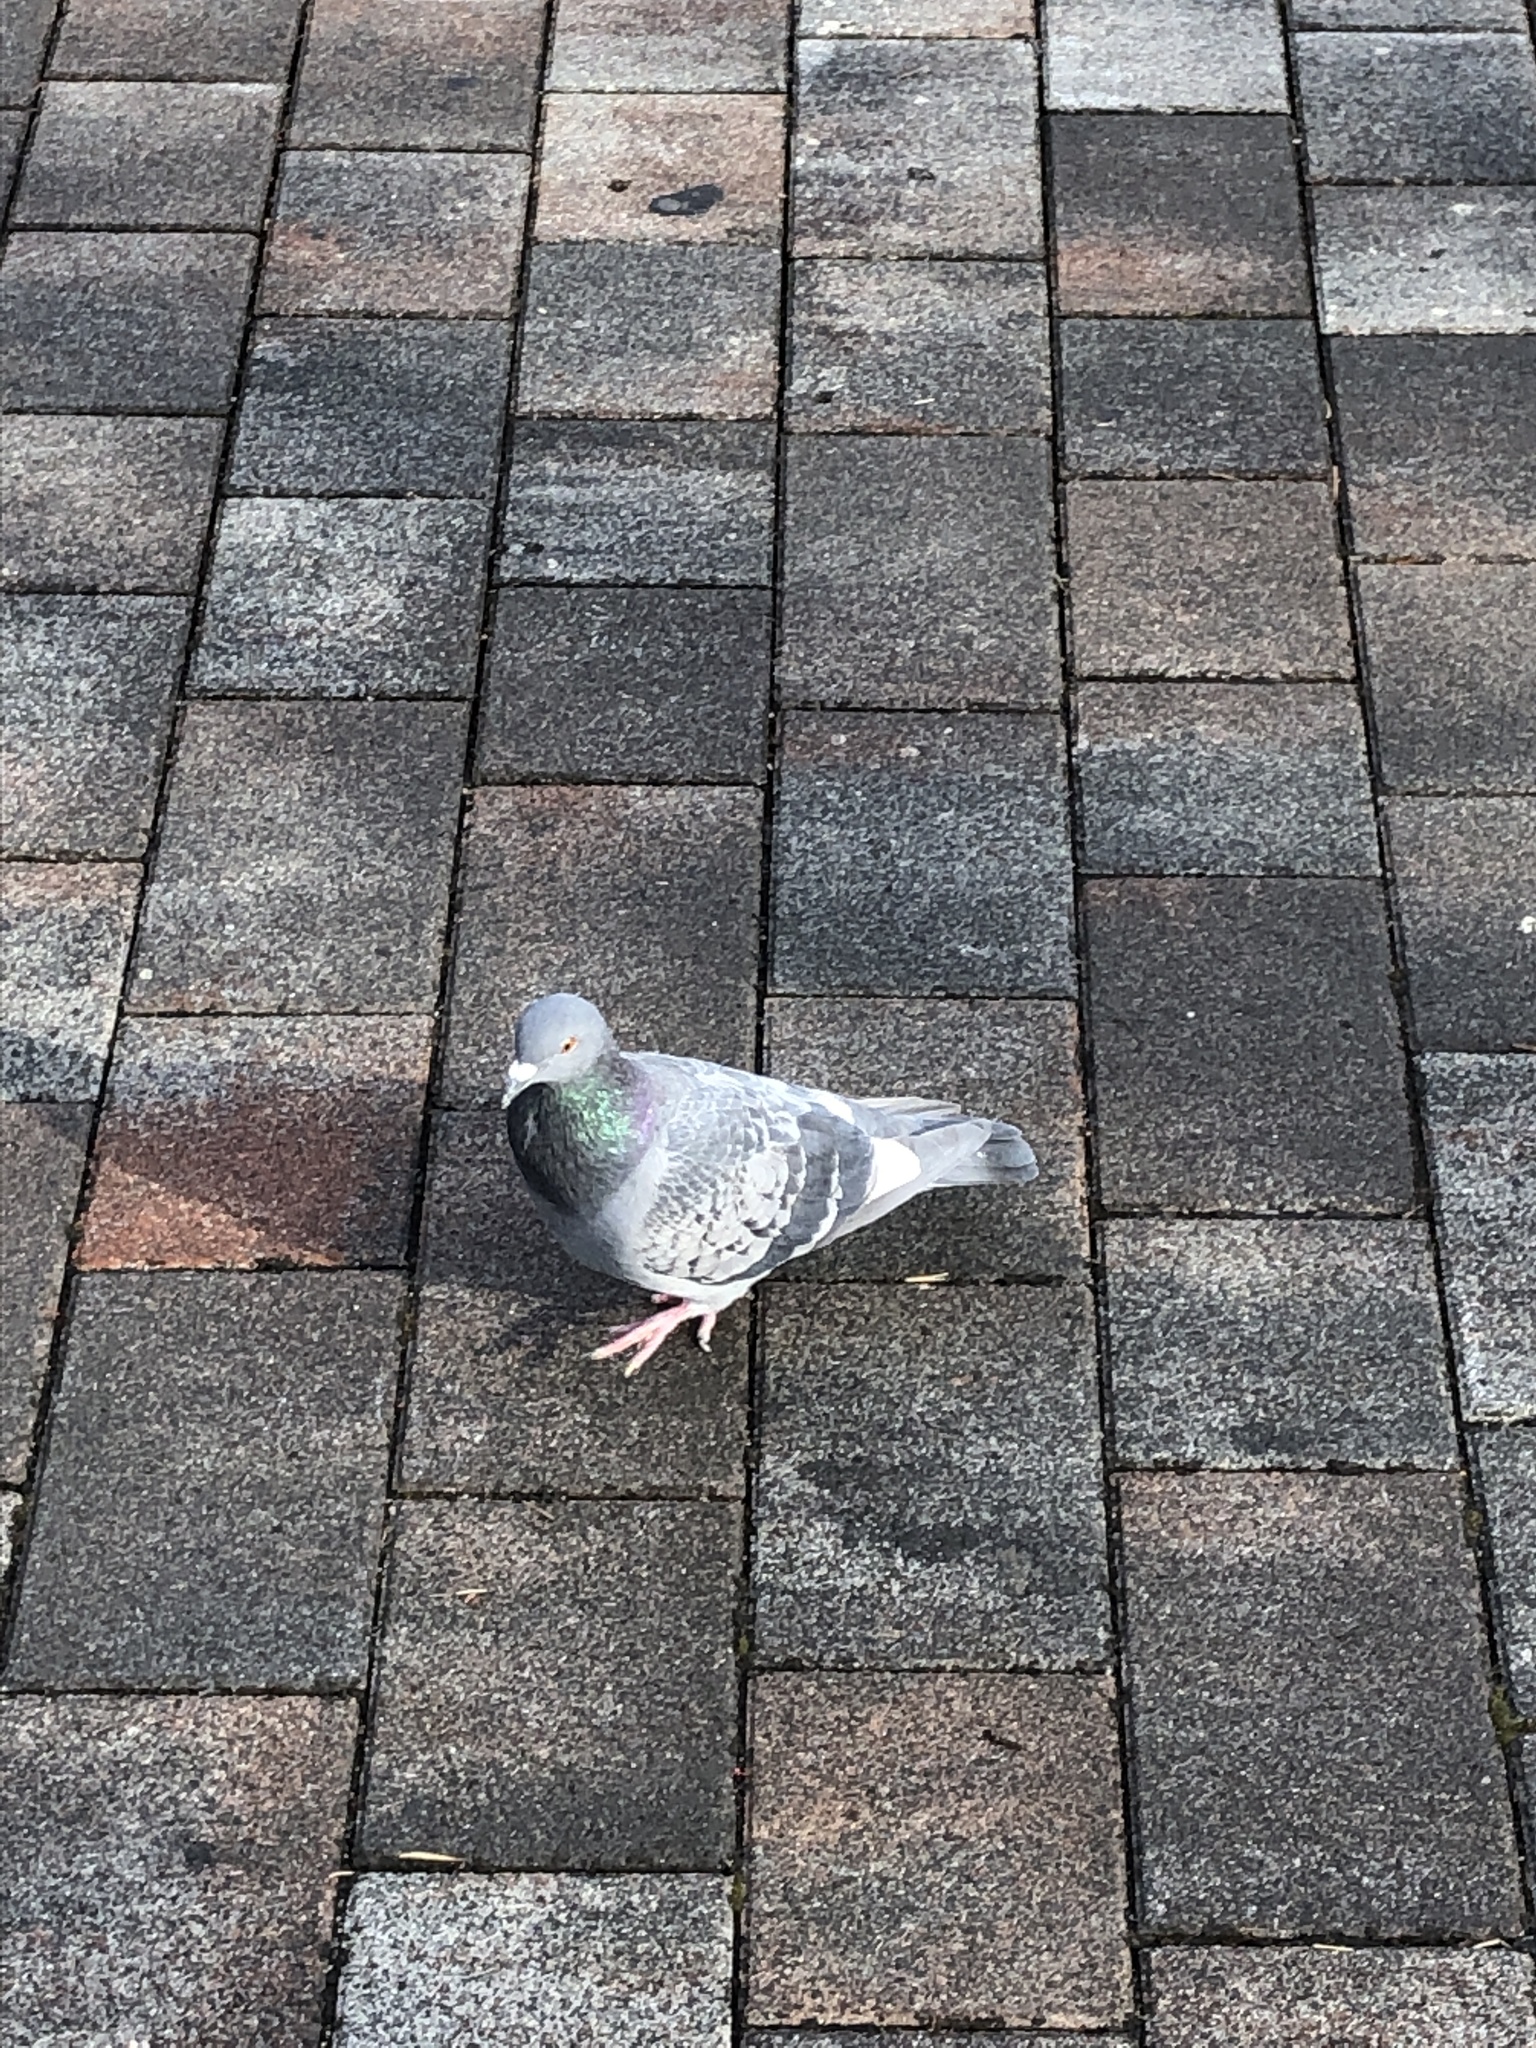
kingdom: Animalia
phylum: Chordata
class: Aves
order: Columbiformes
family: Columbidae
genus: Columba
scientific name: Columba livia
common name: Rock pigeon
